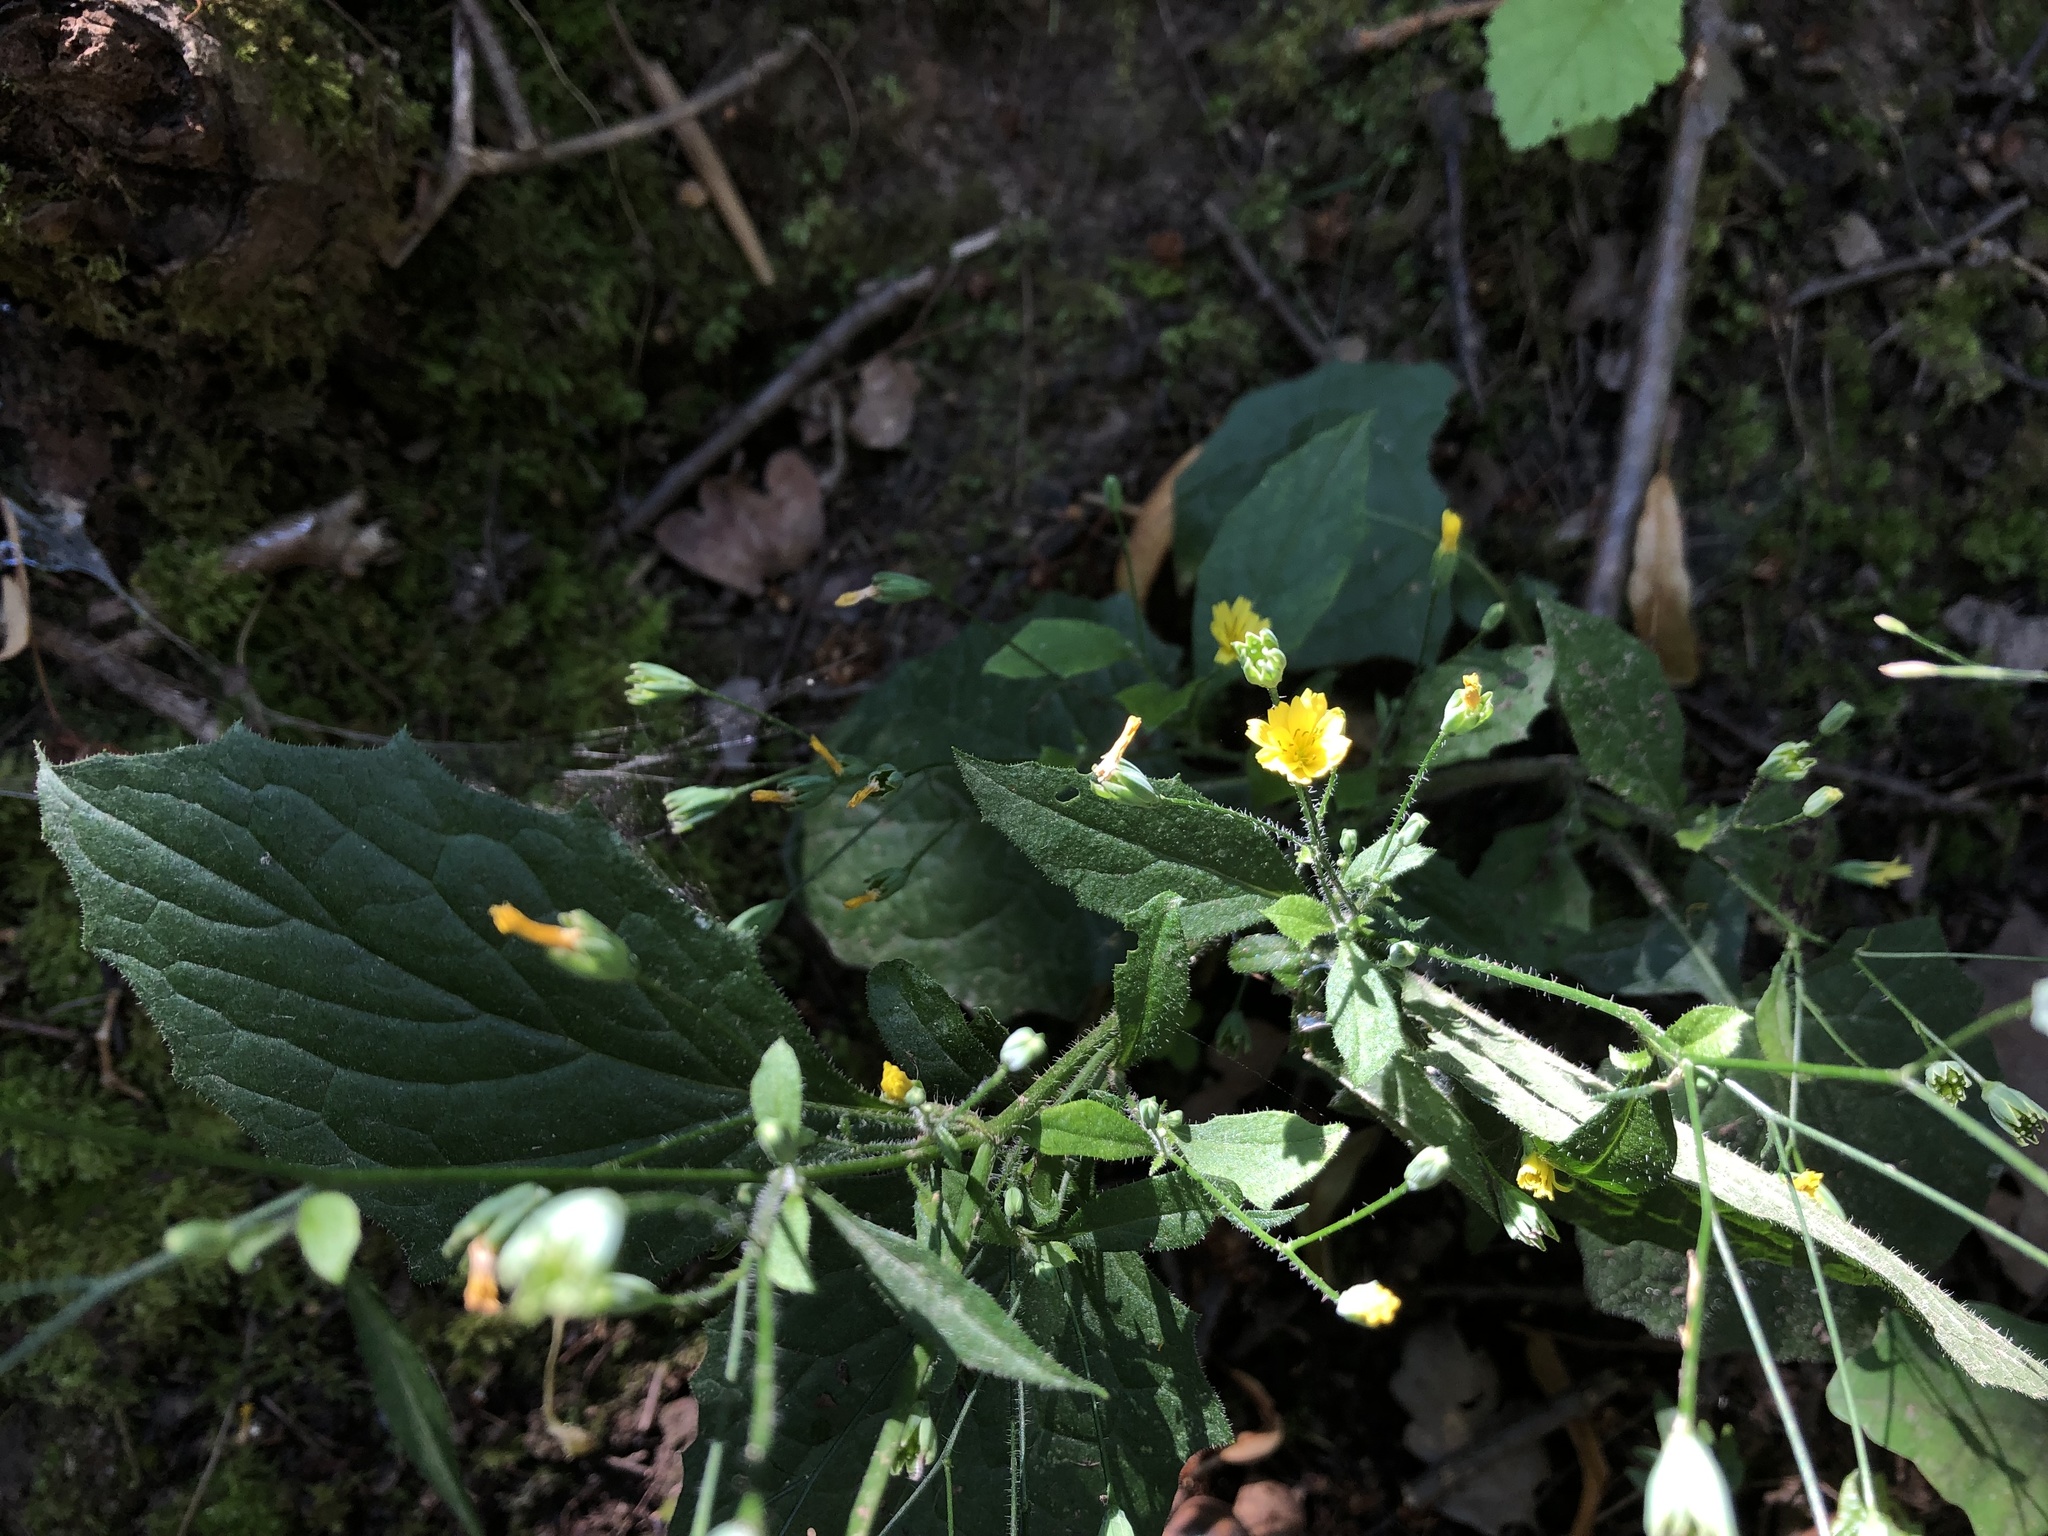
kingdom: Plantae
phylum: Tracheophyta
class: Magnoliopsida
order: Asterales
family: Asteraceae
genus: Lapsana
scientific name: Lapsana communis
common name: Nipplewort
